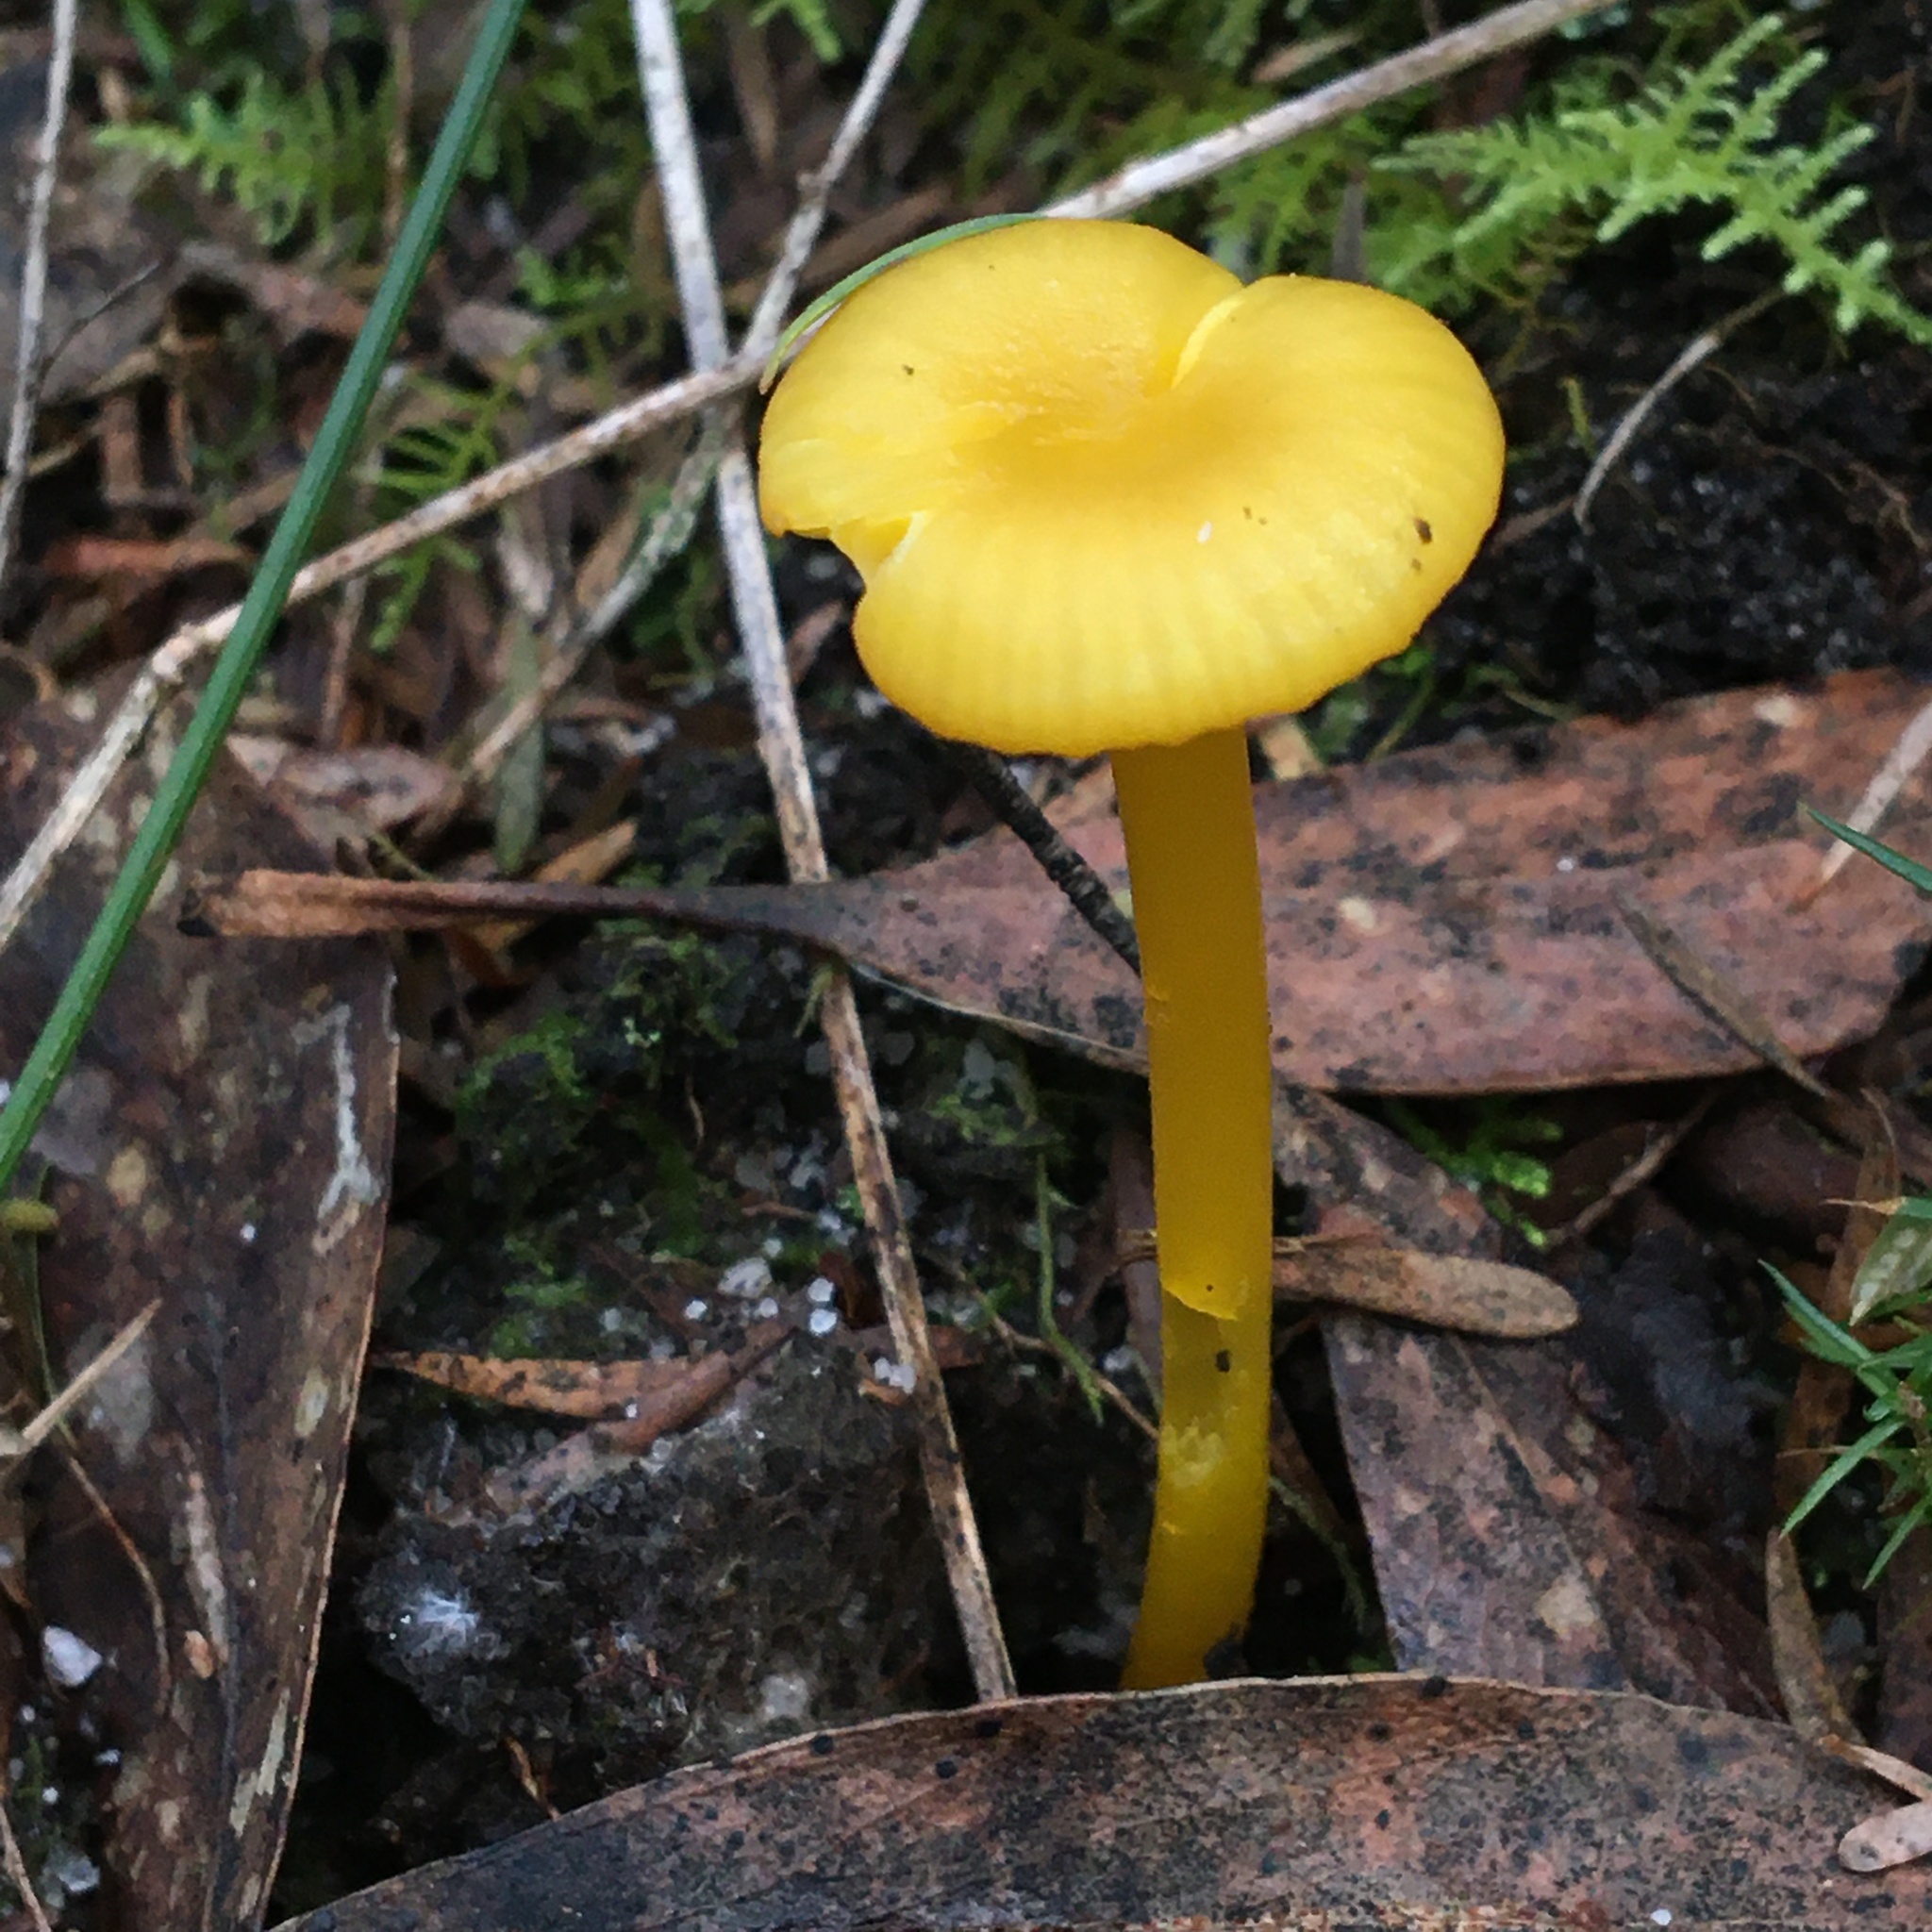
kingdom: Fungi
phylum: Basidiomycota
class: Agaricomycetes
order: Agaricales
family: Hygrophoraceae
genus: Gloioxanthomyces
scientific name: Gloioxanthomyces
